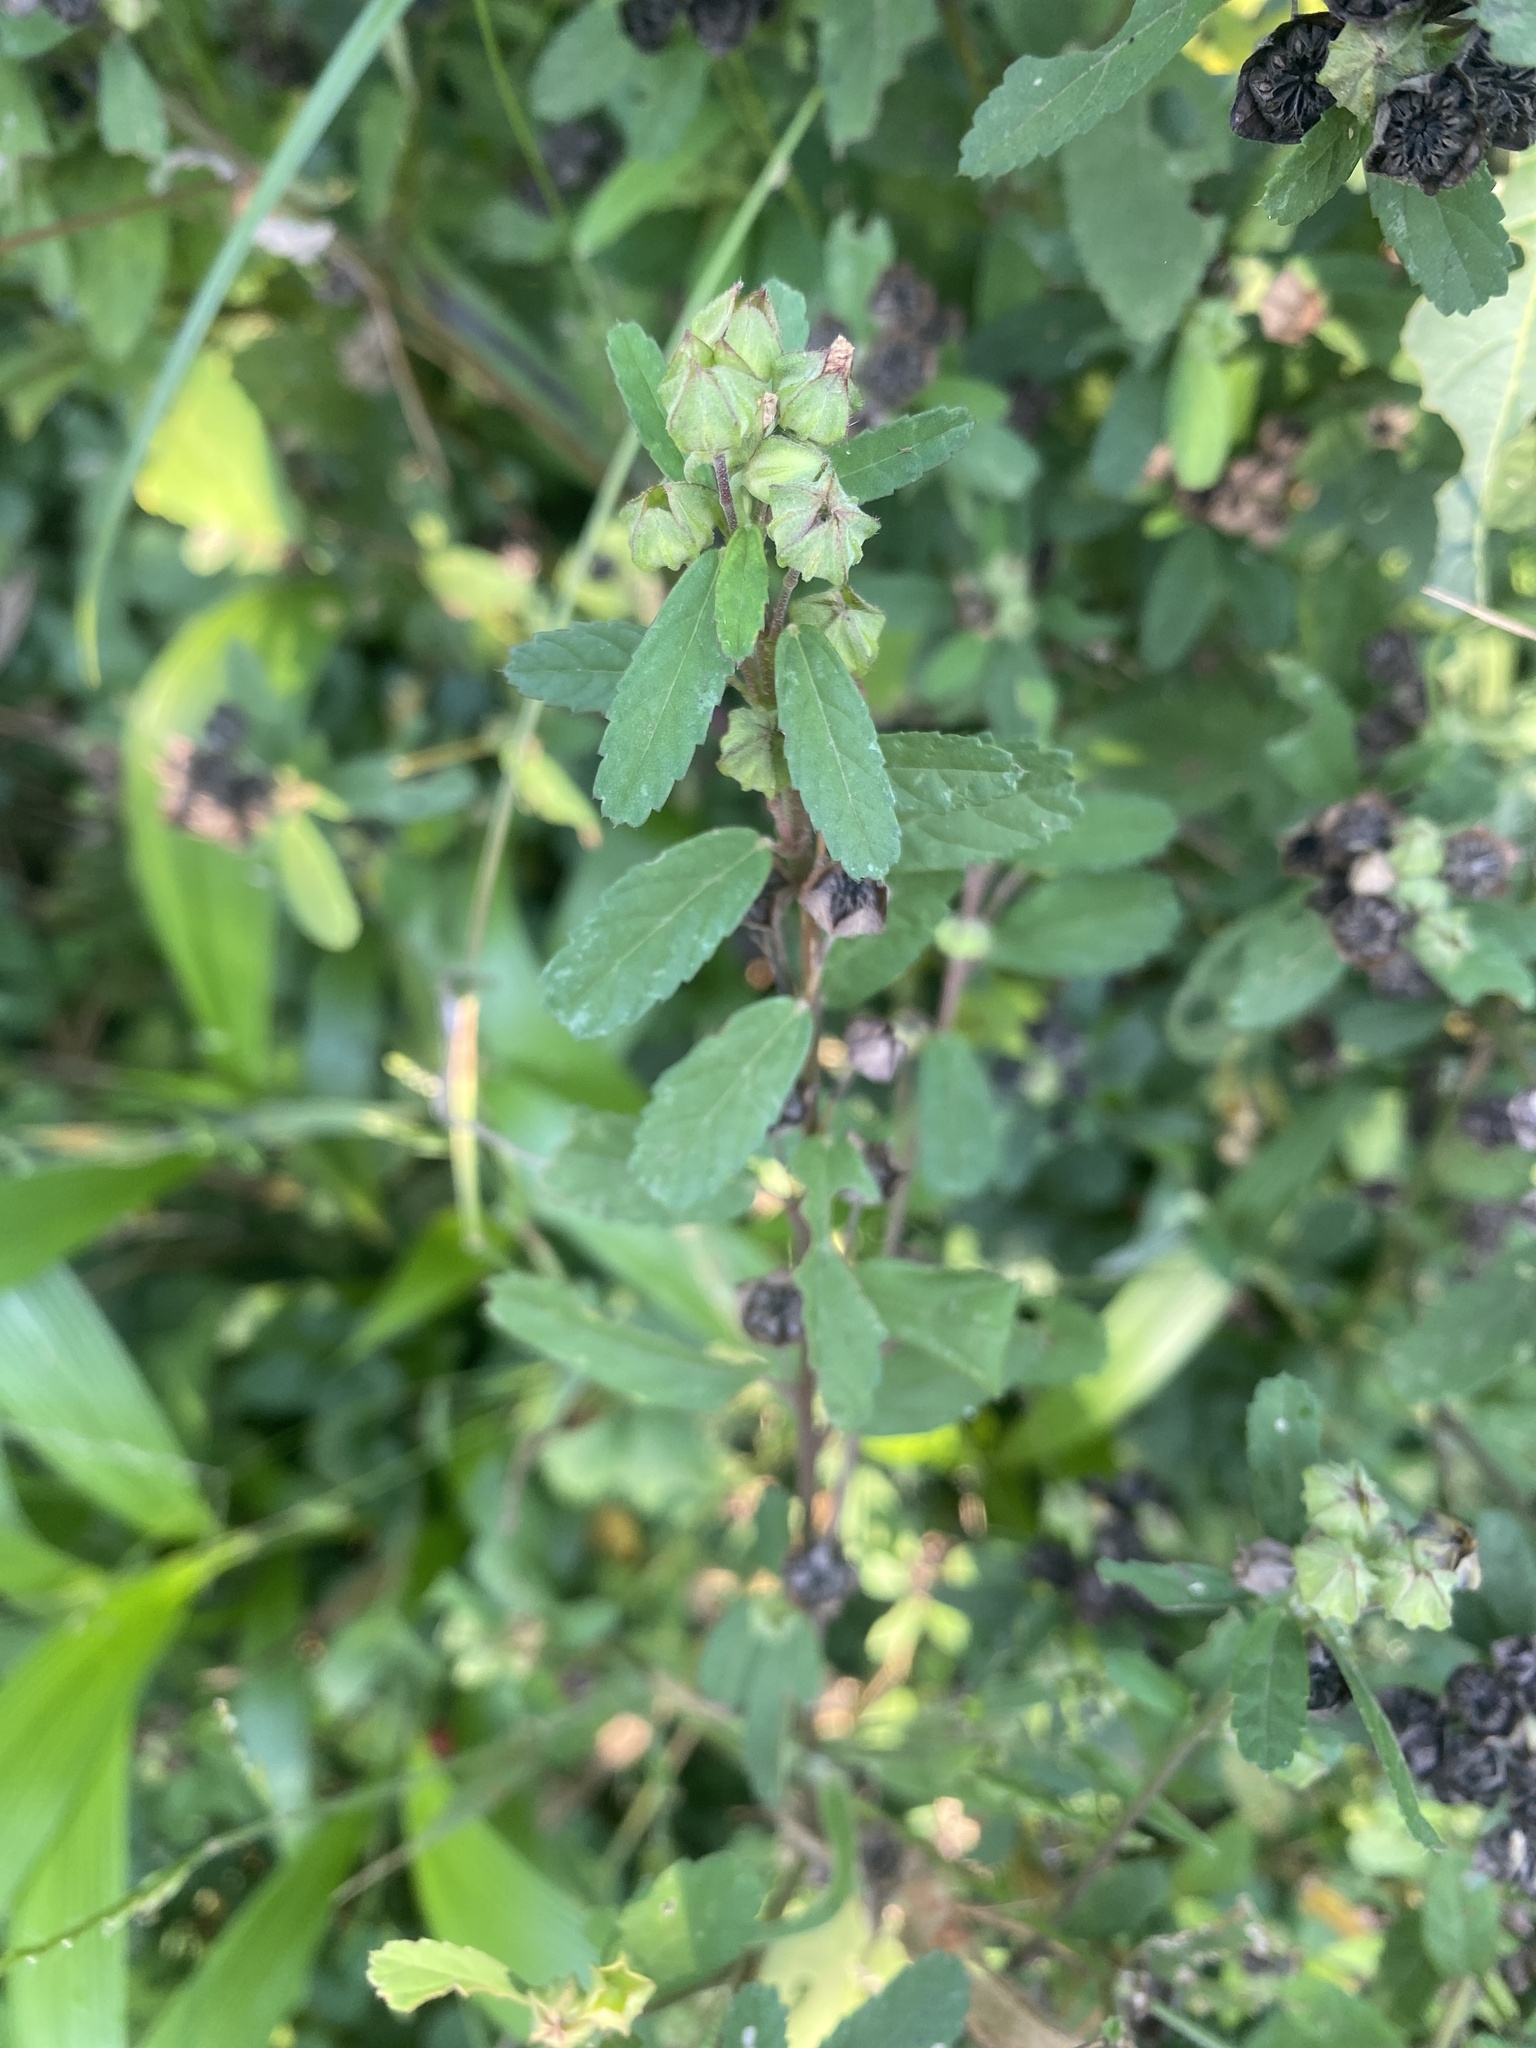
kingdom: Plantae
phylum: Tracheophyta
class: Magnoliopsida
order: Malvales
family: Malvaceae
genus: Sida
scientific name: Sida alba
